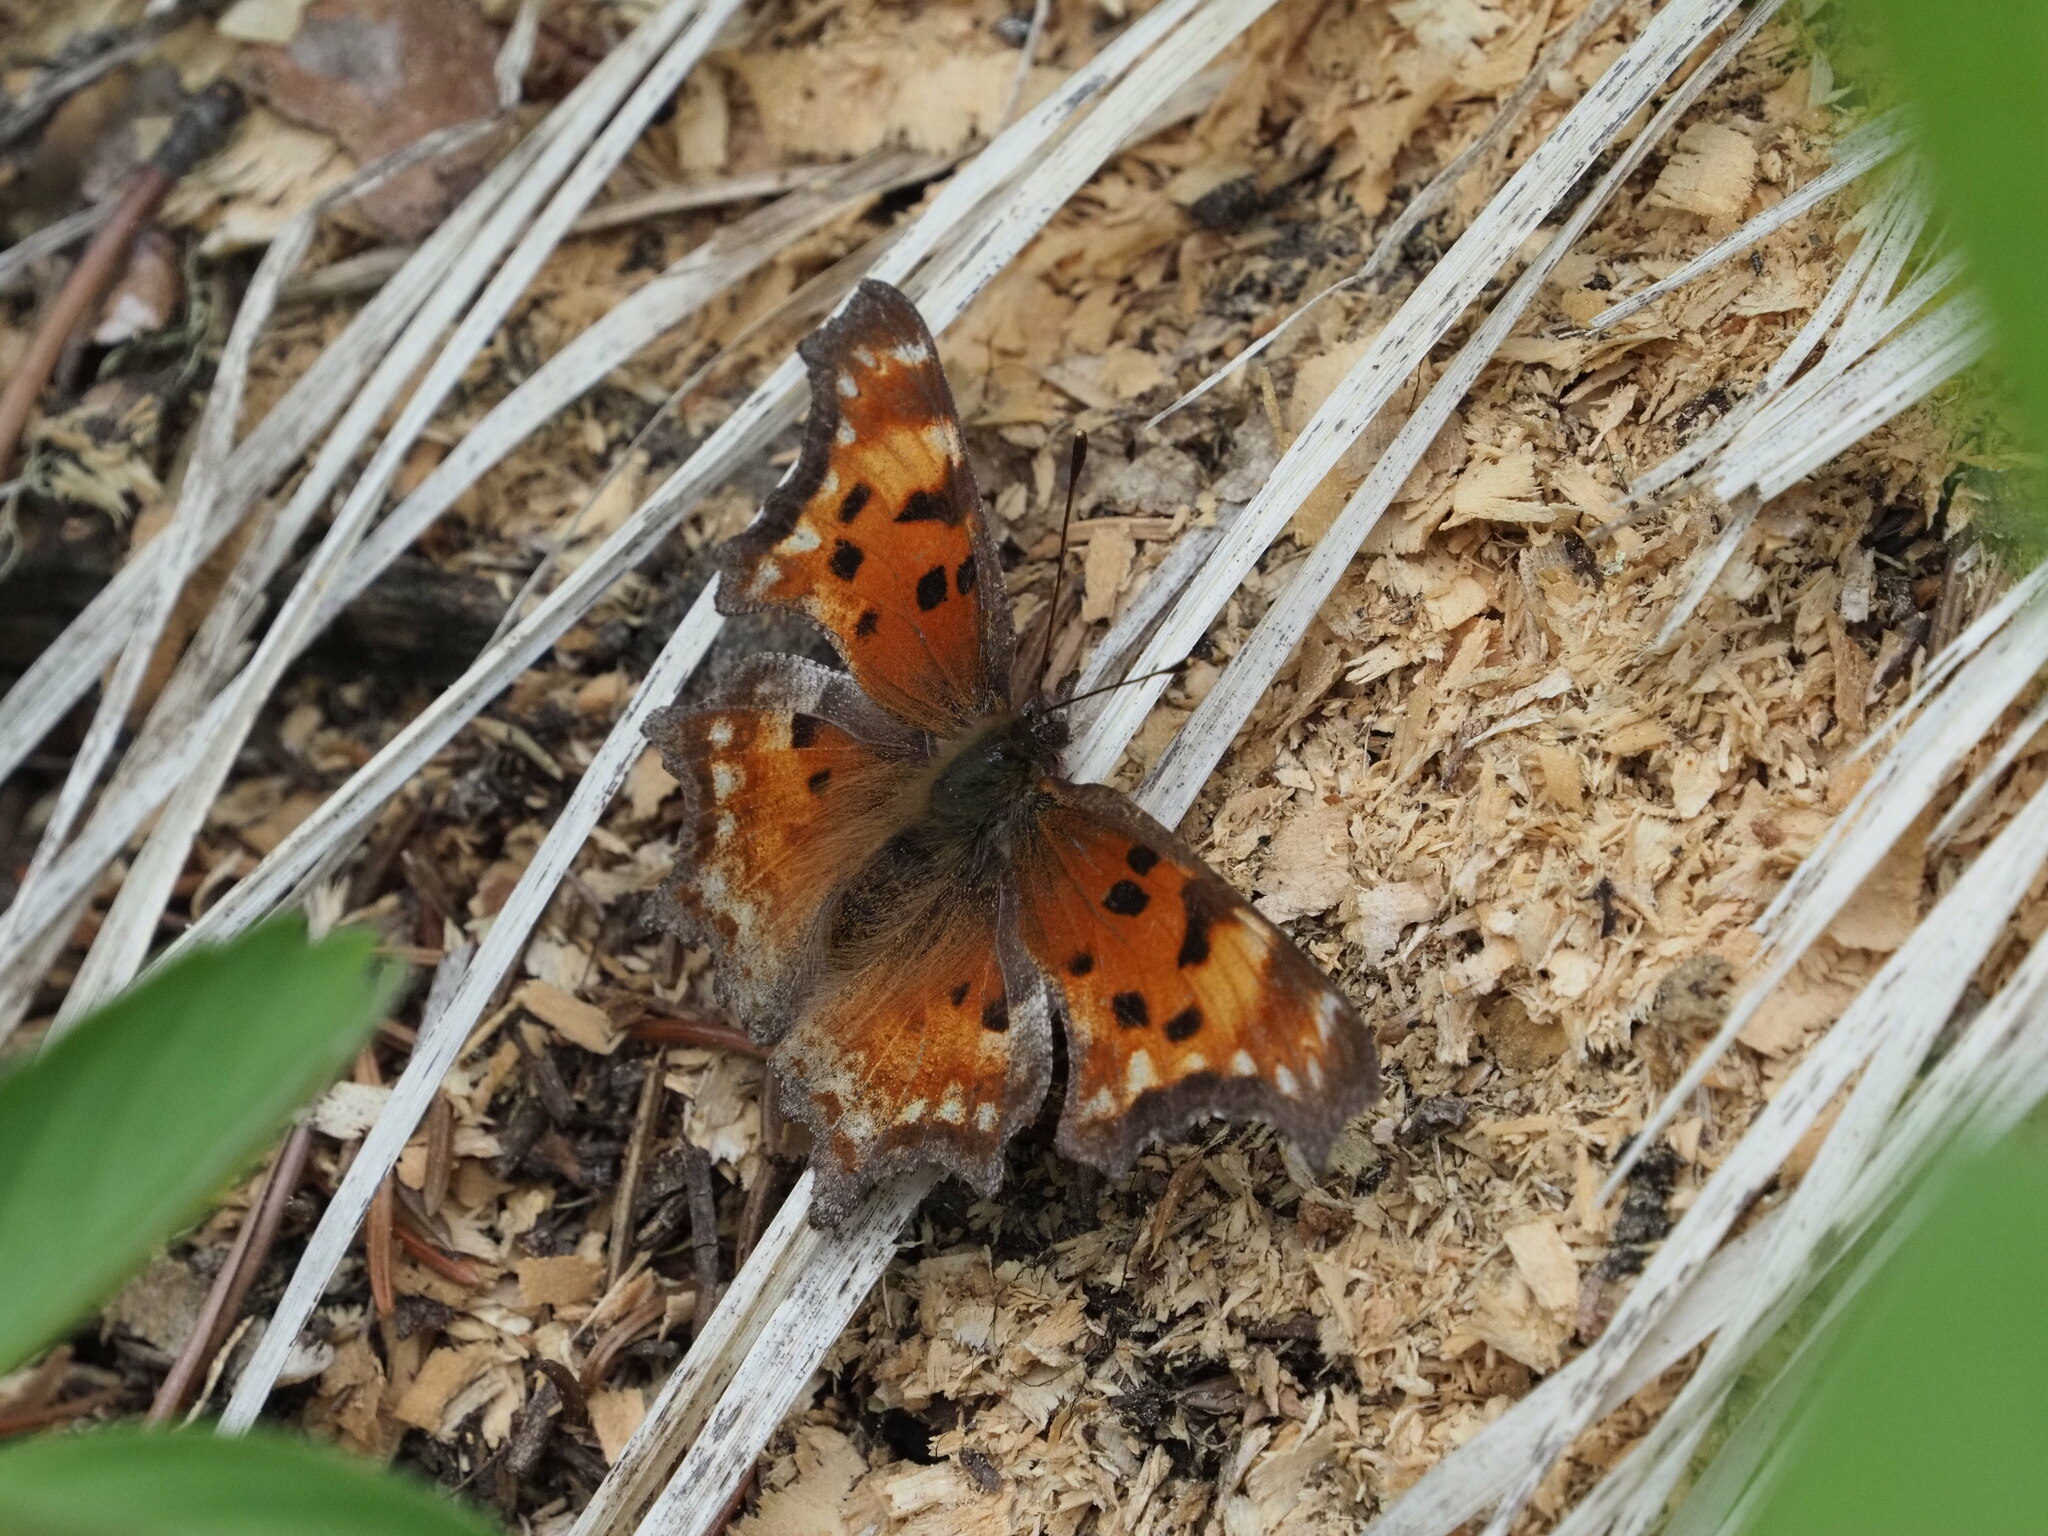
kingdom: Animalia
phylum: Arthropoda
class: Insecta
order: Lepidoptera
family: Nymphalidae
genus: Polygonia
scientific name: Polygonia gracilis
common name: Hoary comma
